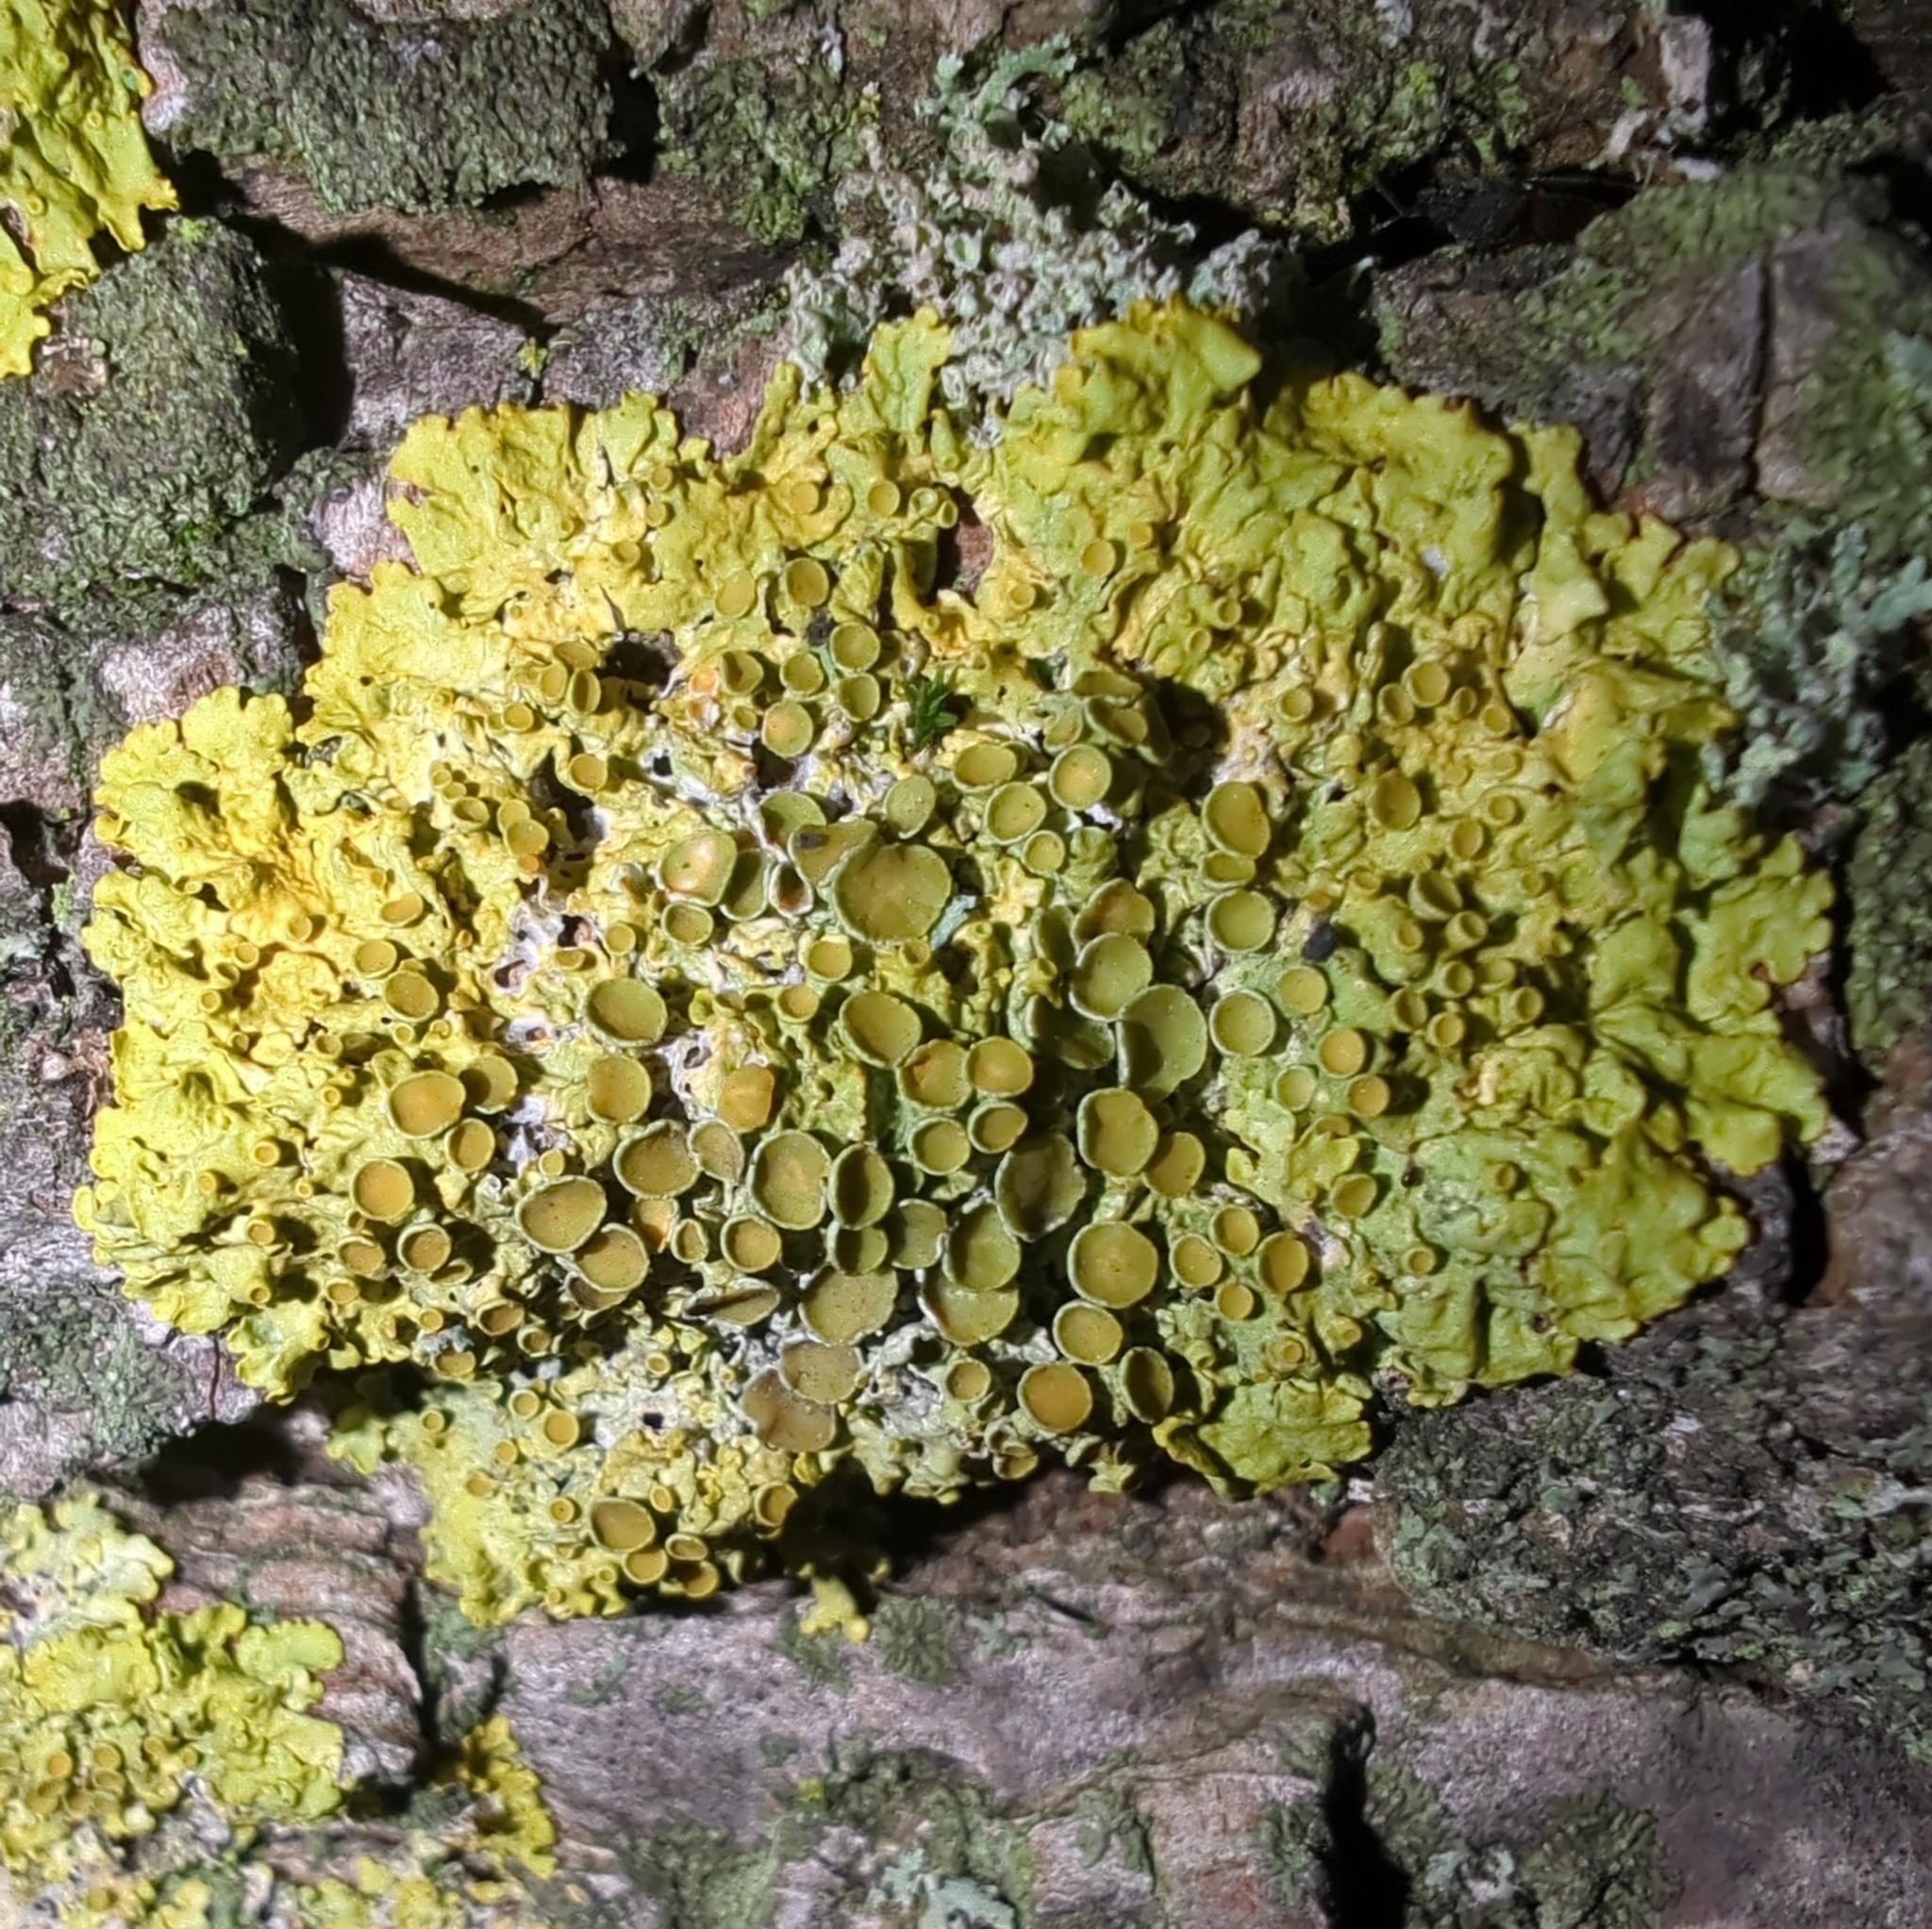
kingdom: Fungi
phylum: Ascomycota
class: Lecanoromycetes
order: Teloschistales
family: Teloschistaceae
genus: Xanthoria
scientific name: Xanthoria parietina
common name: Common orange lichen
